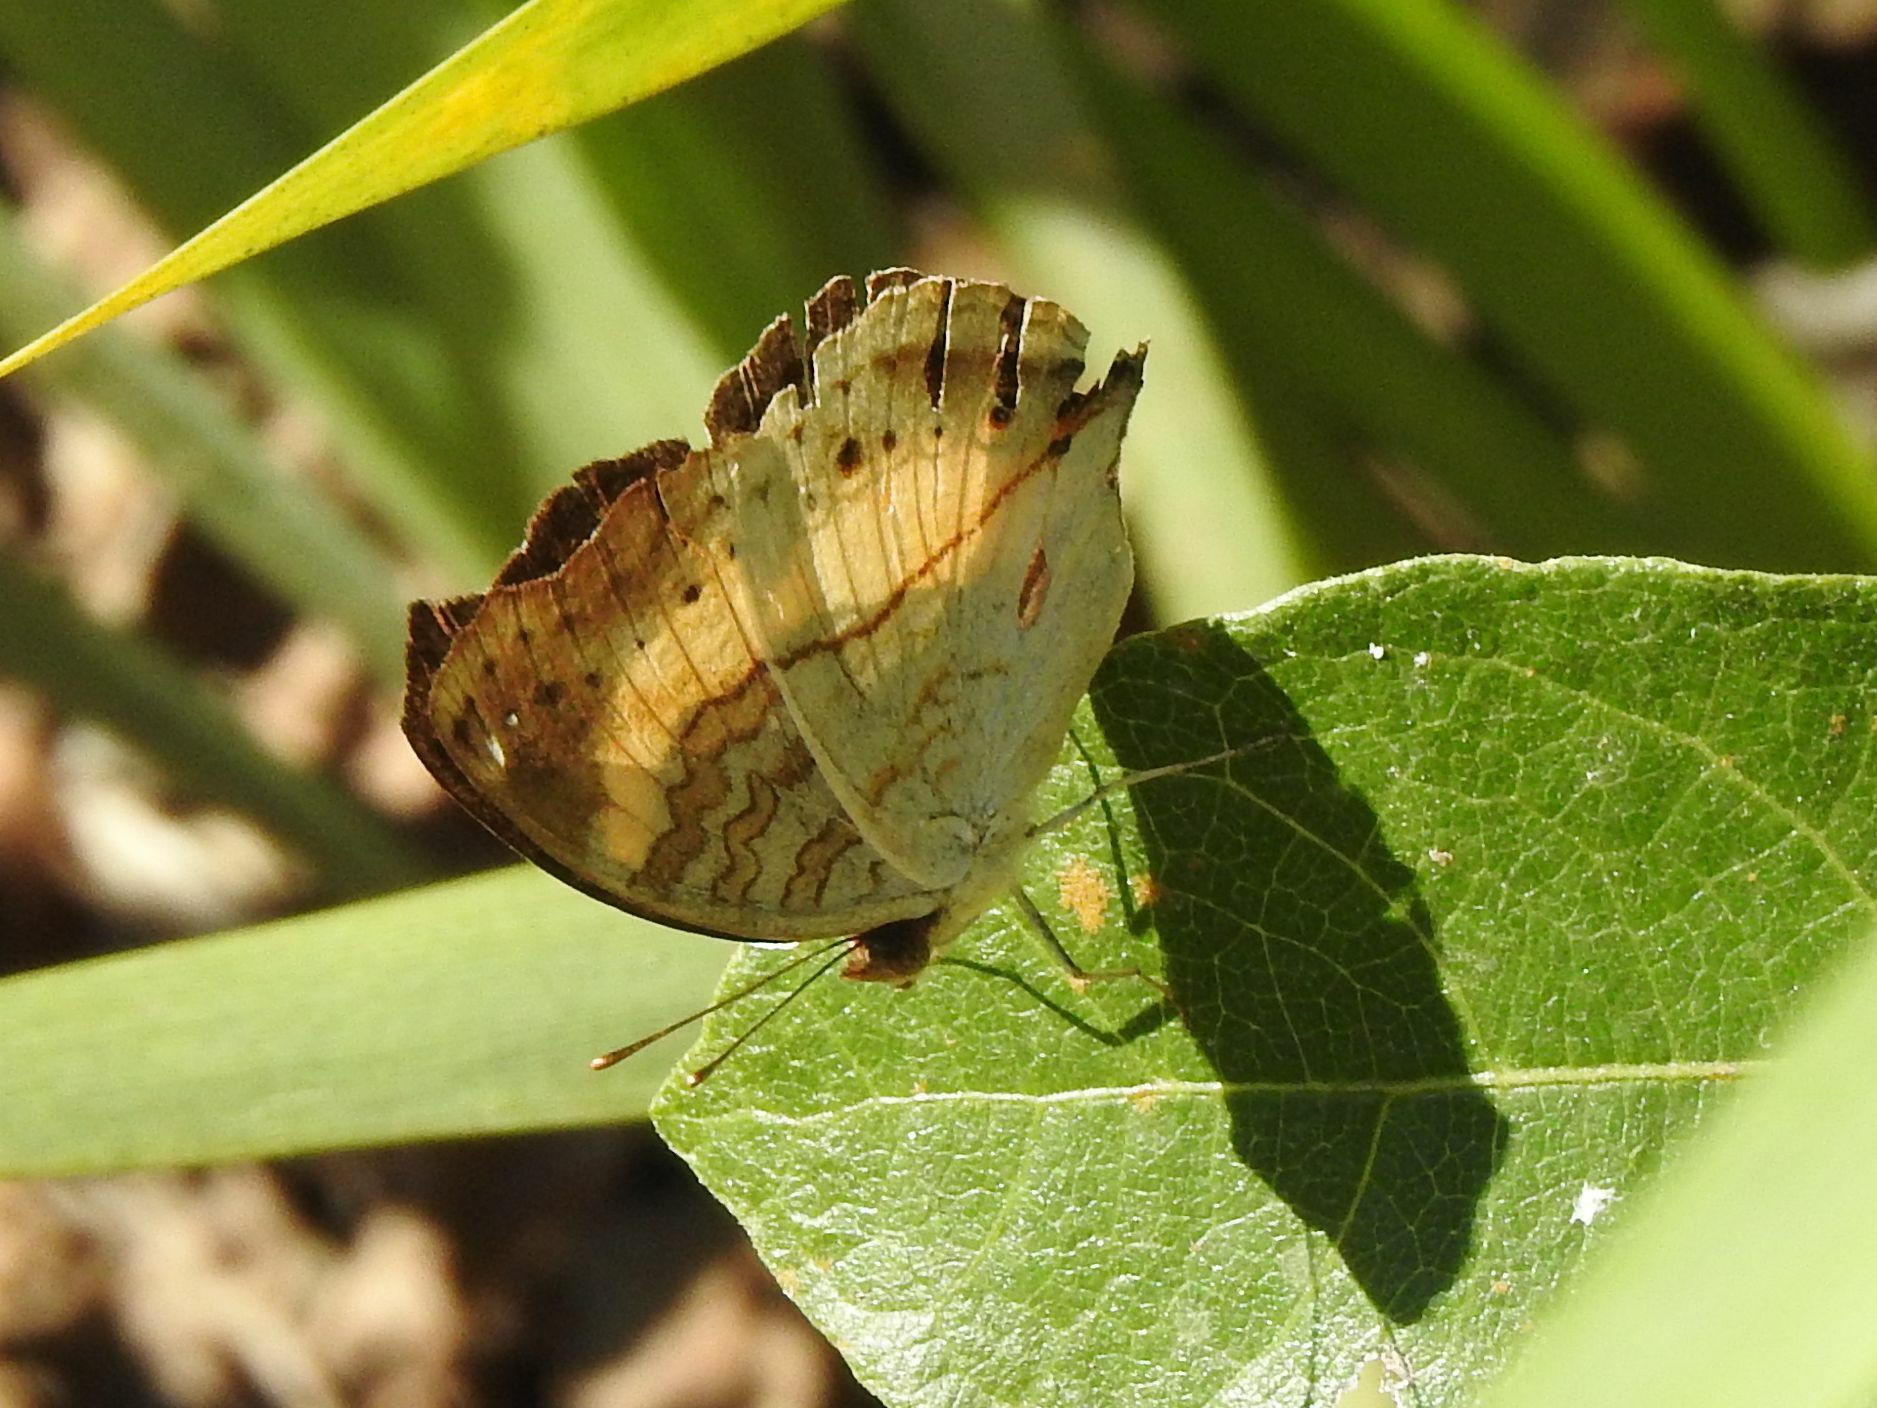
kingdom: Animalia
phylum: Arthropoda
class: Insecta
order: Lepidoptera
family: Nymphalidae
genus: Junonia
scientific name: Junonia terea
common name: Soldier pansy
